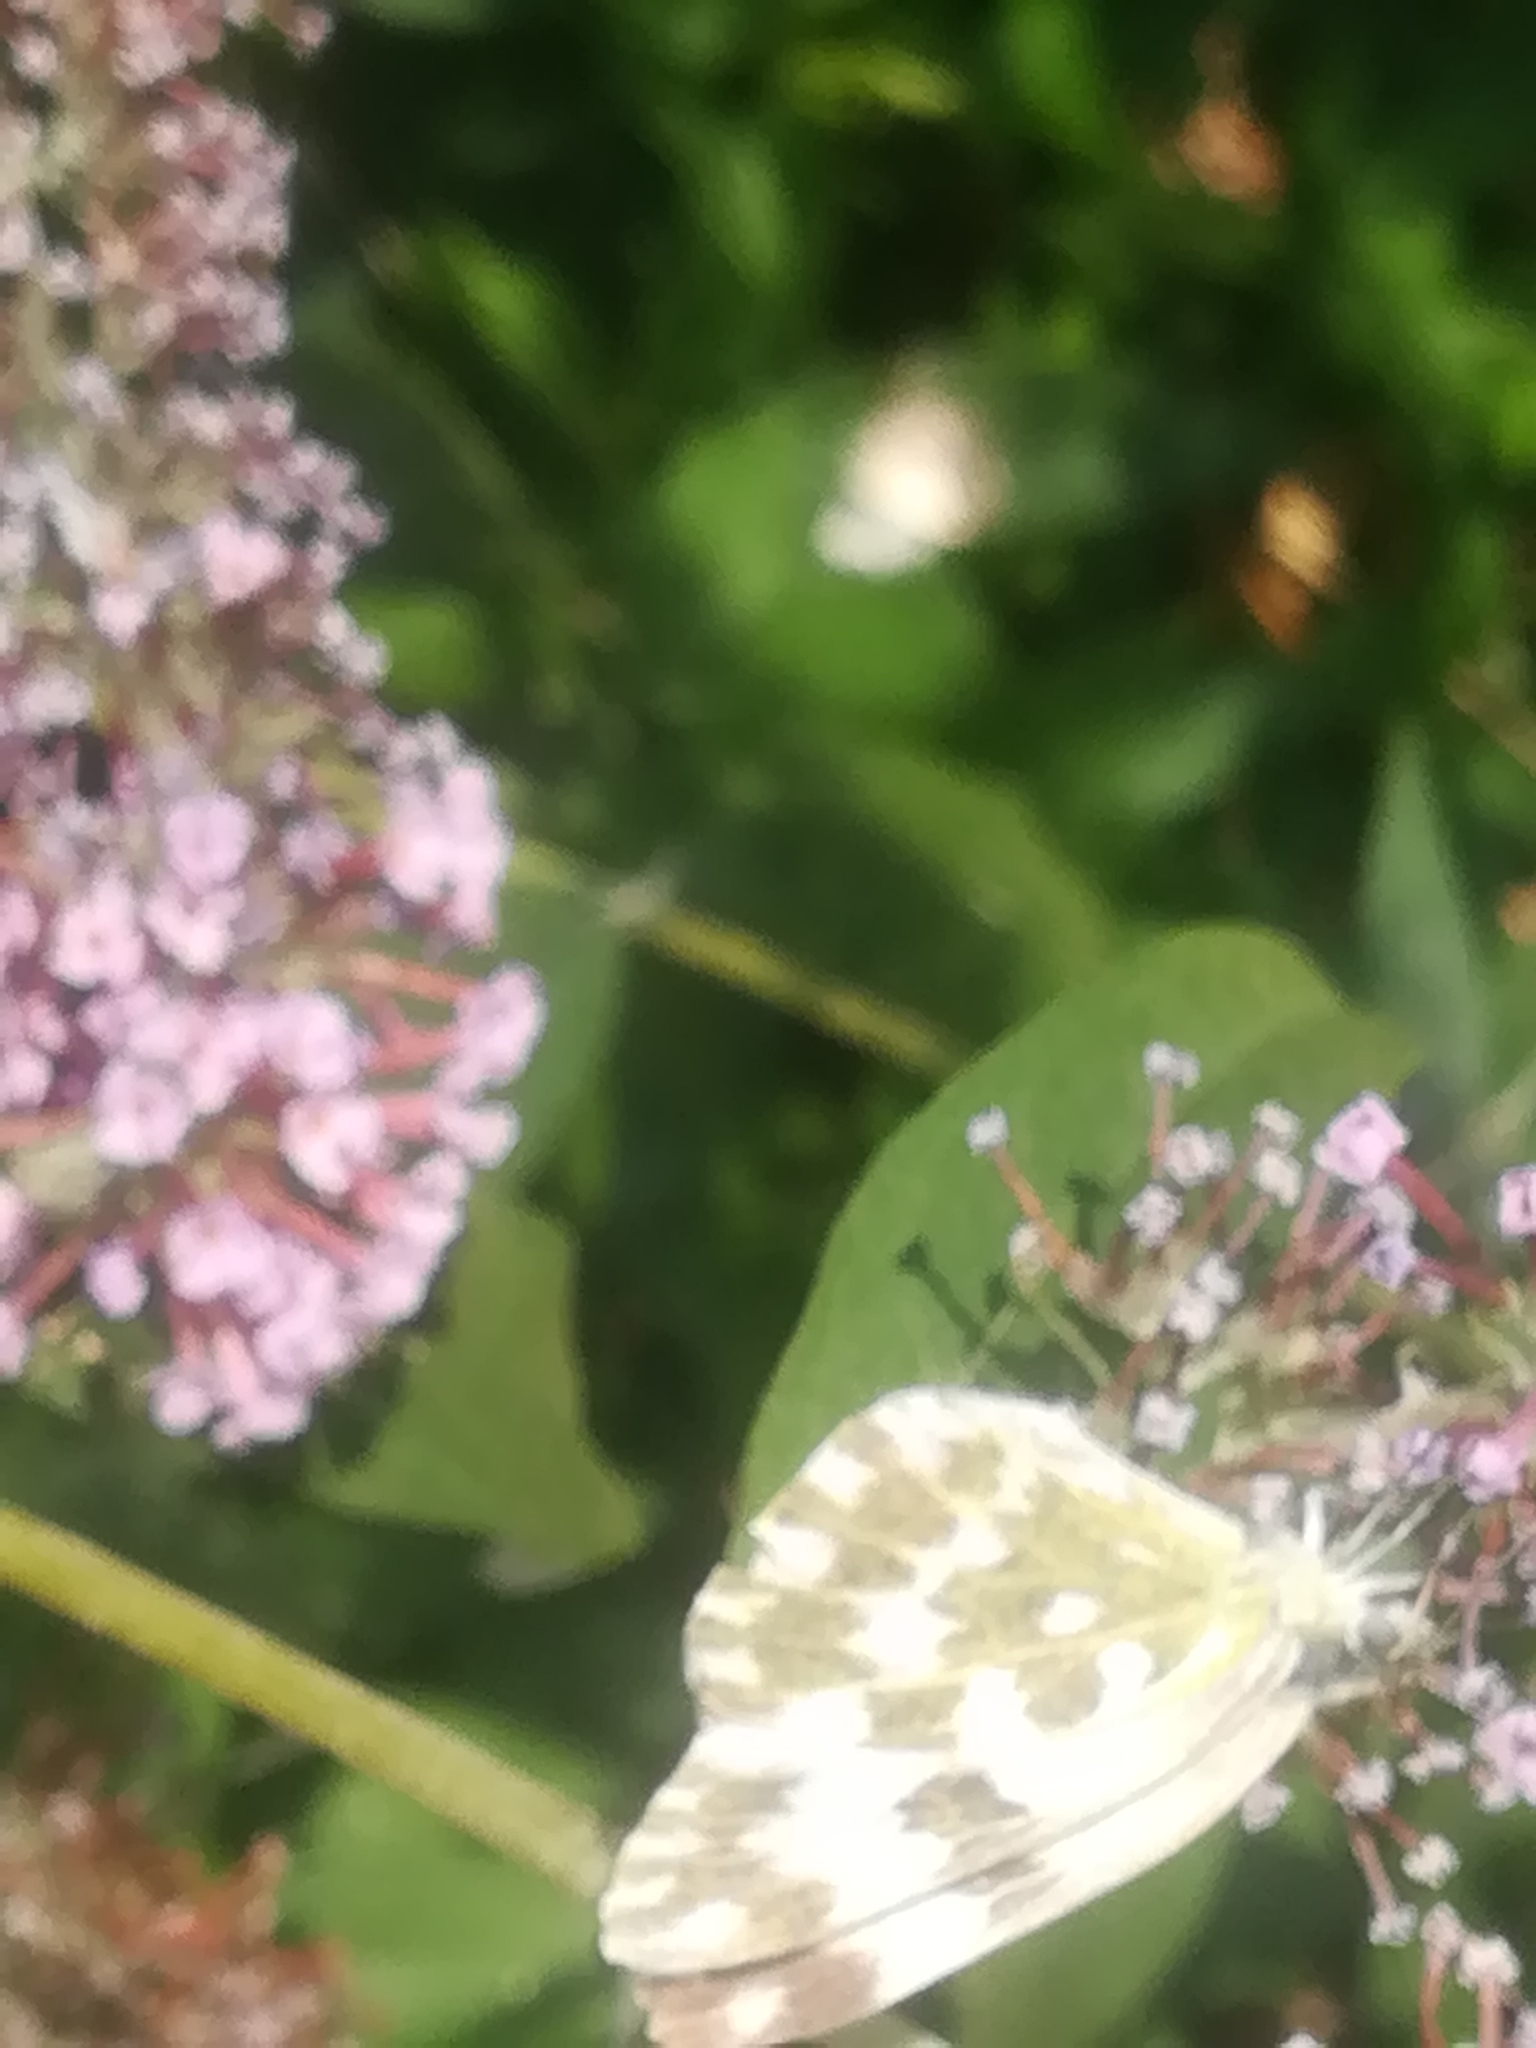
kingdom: Animalia
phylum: Arthropoda
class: Insecta
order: Lepidoptera
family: Pieridae
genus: Pontia
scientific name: Pontia edusa
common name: Eastern bath white
